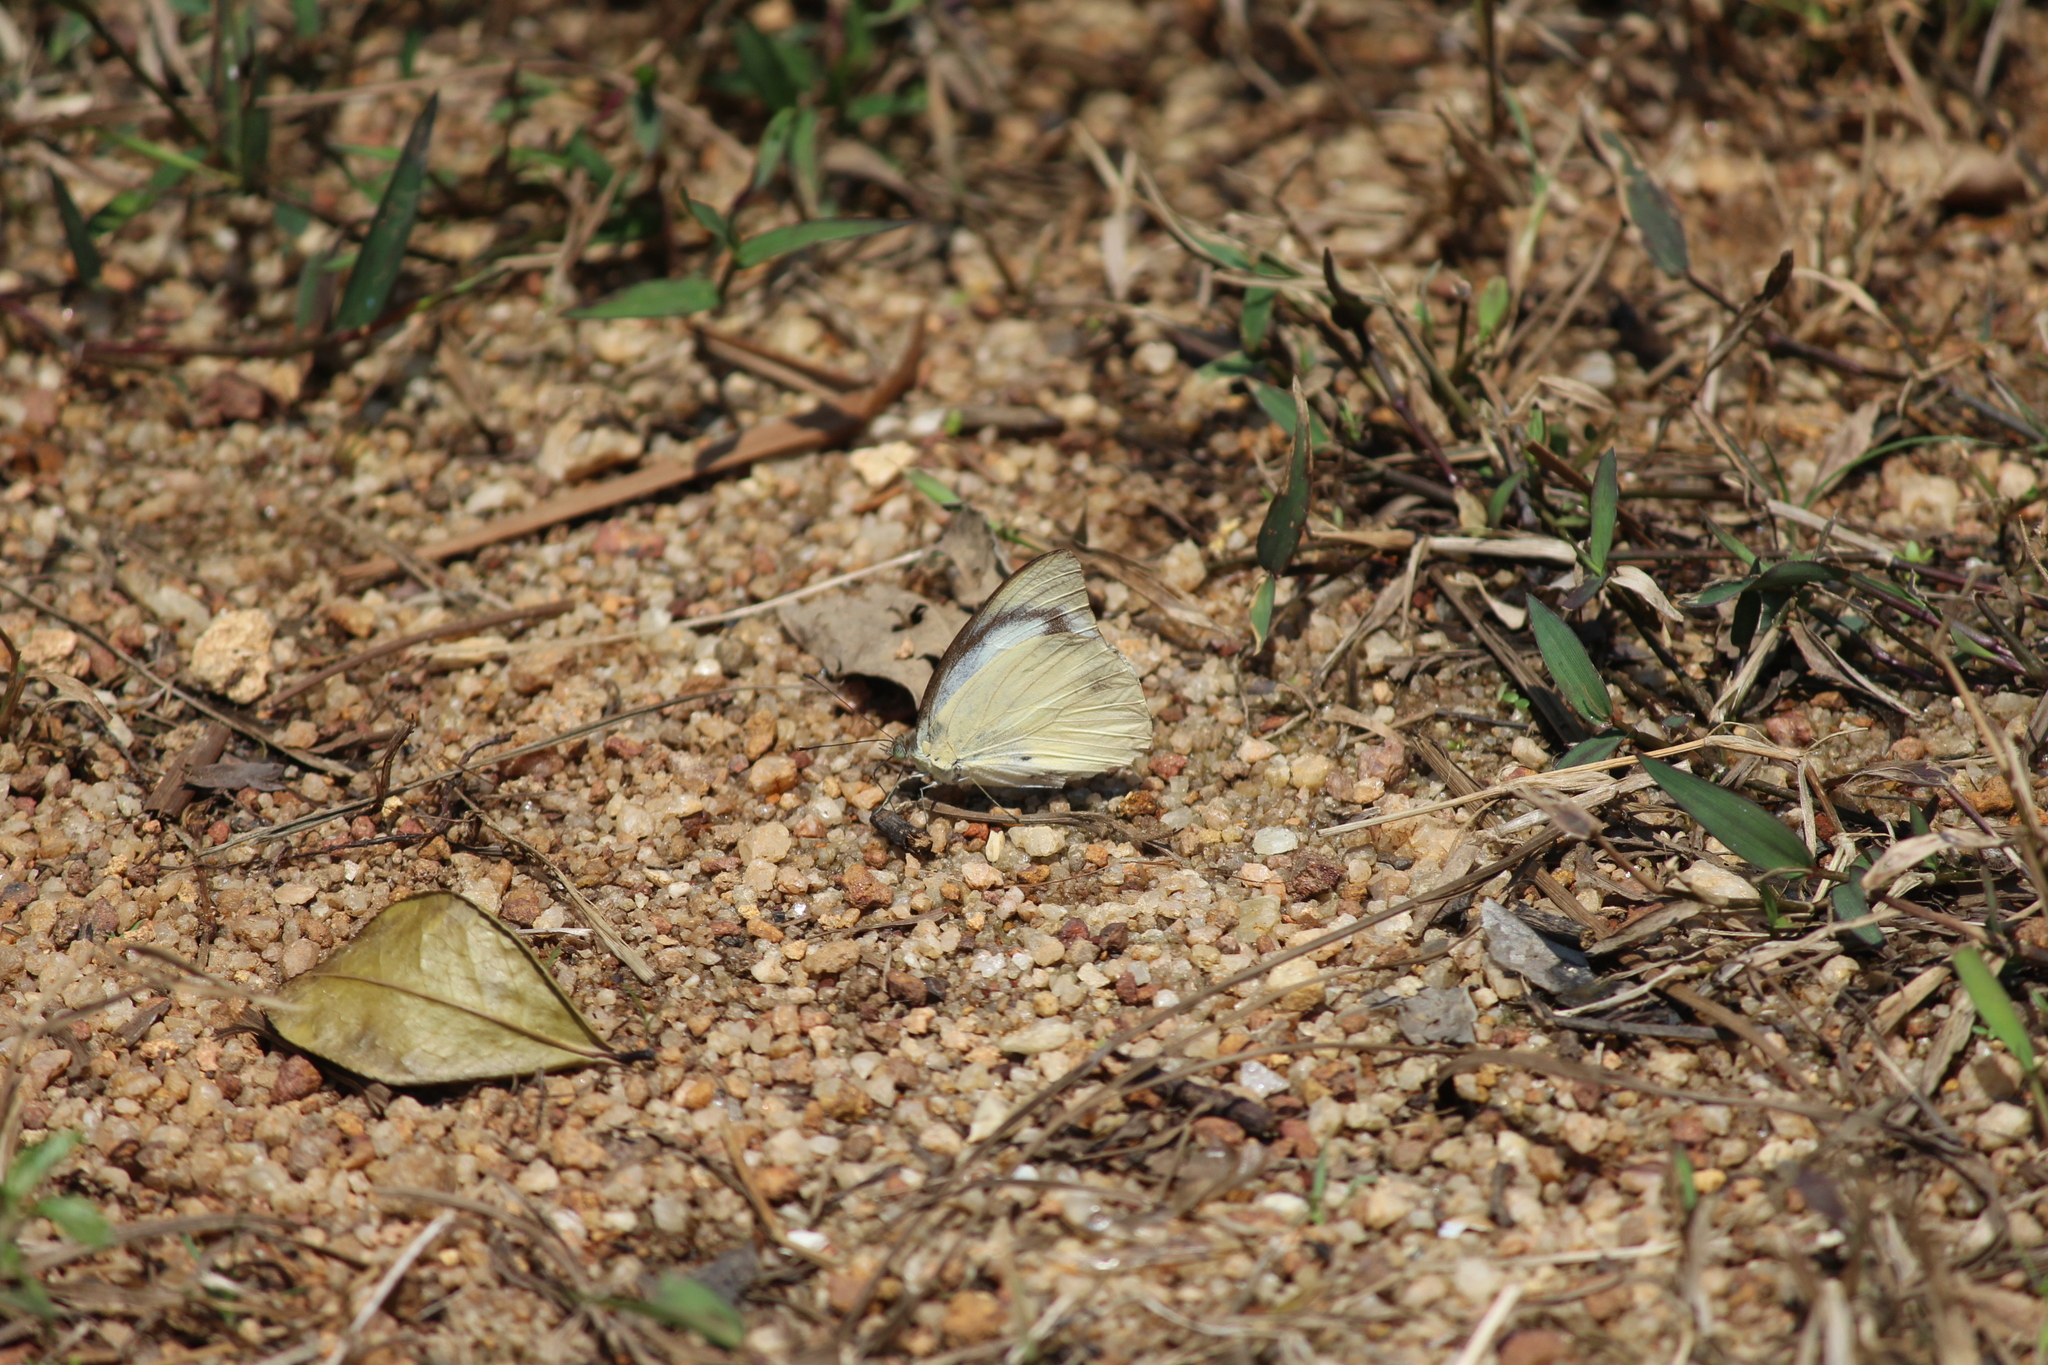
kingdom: Animalia
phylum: Arthropoda
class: Insecta
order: Lepidoptera
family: Pieridae
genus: Appias
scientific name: Appias albina
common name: Common albatross
